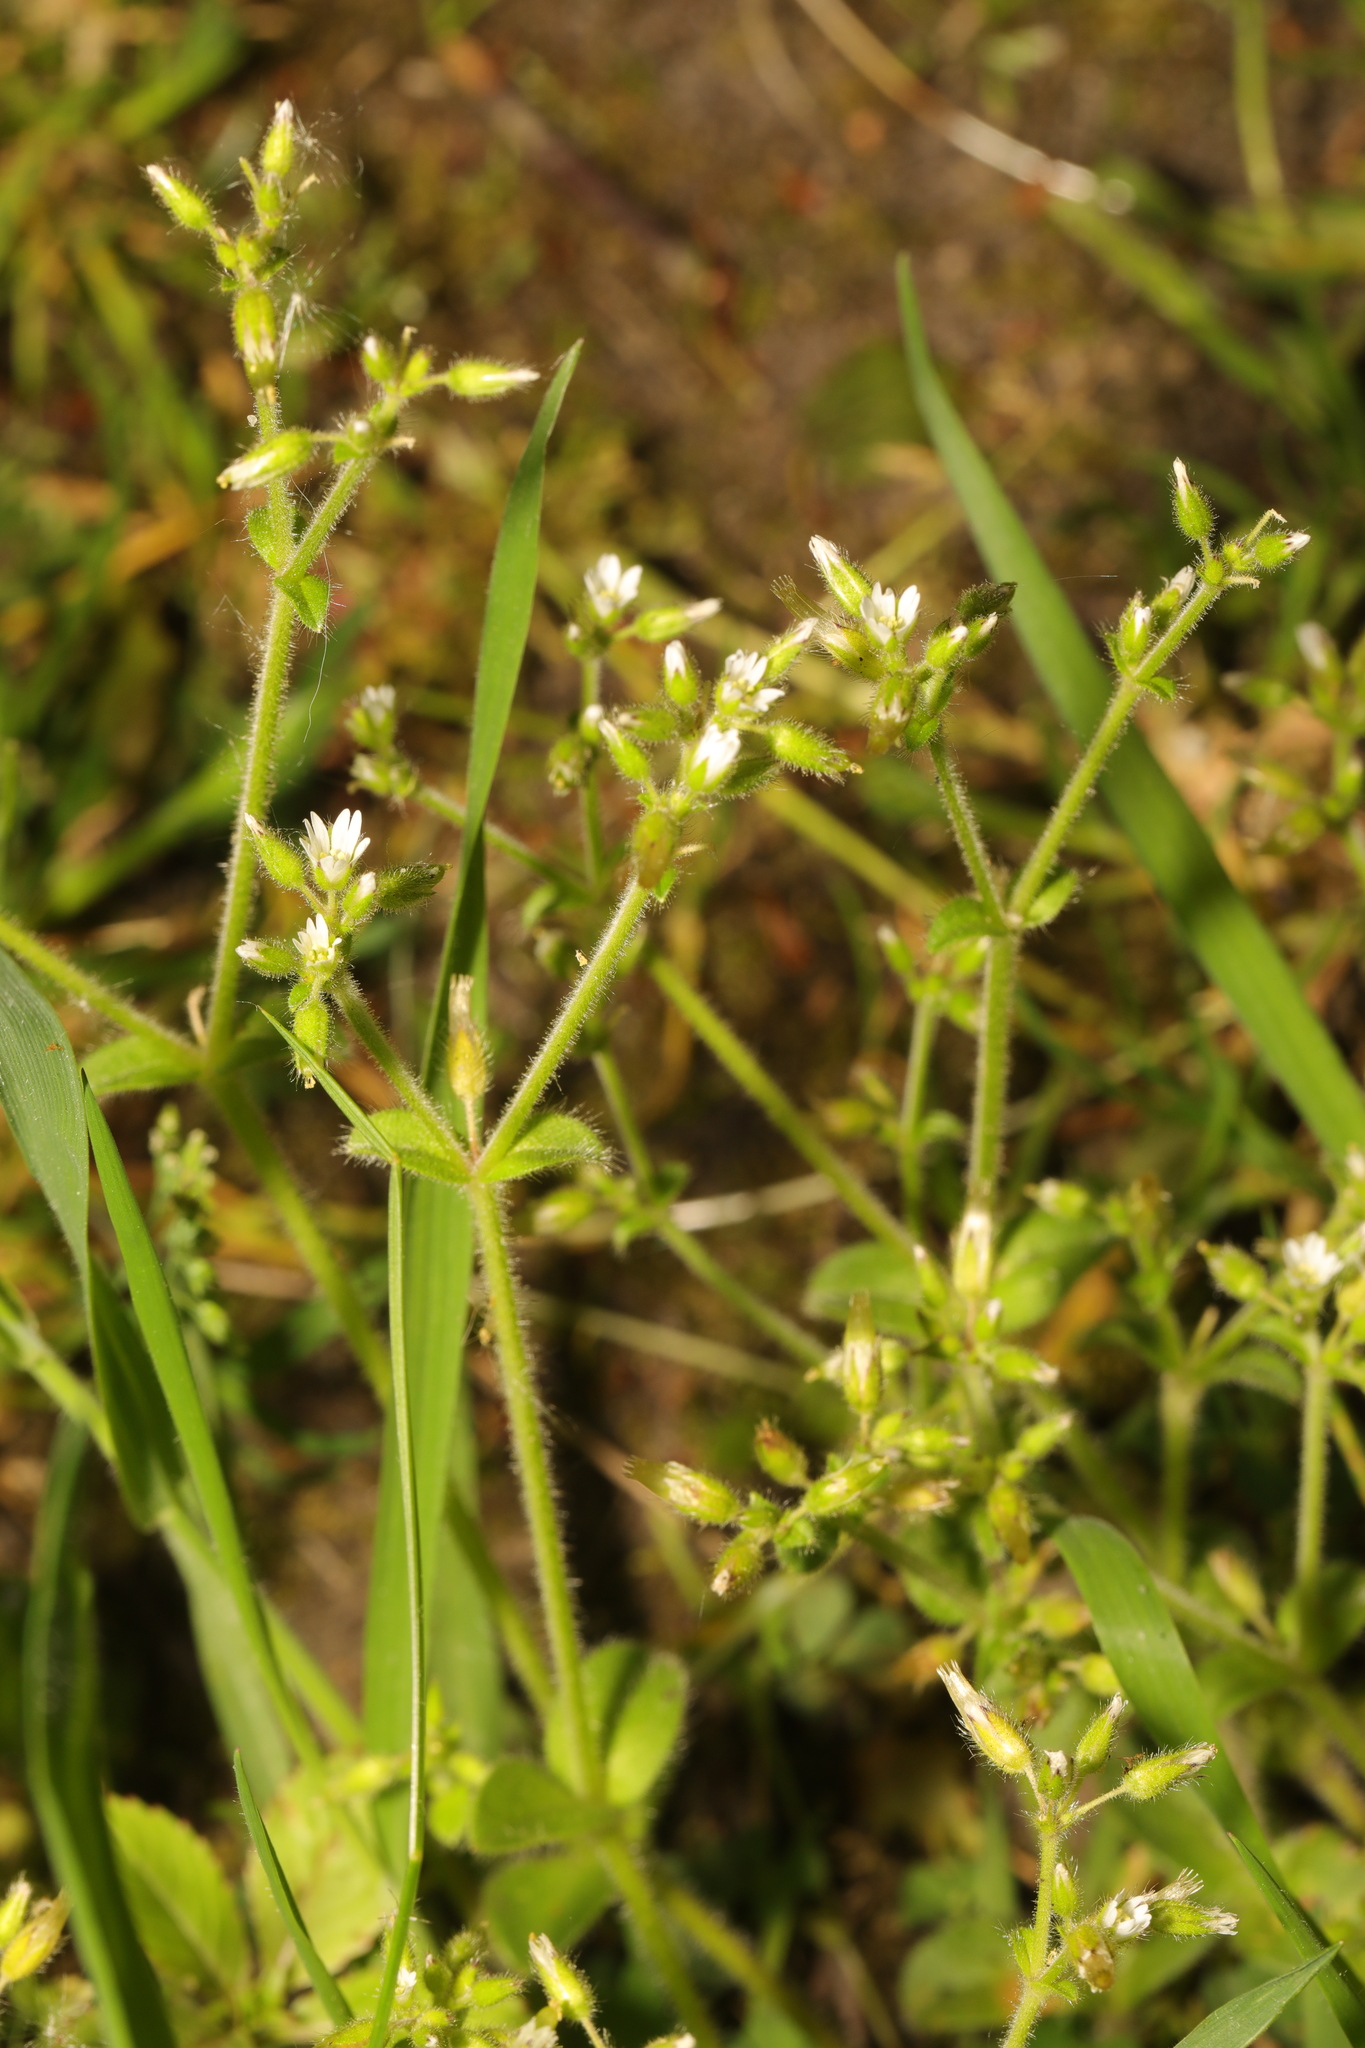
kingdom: Plantae
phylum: Tracheophyta
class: Magnoliopsida
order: Caryophyllales
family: Caryophyllaceae
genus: Cerastium
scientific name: Cerastium glomeratum
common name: Sticky chickweed
